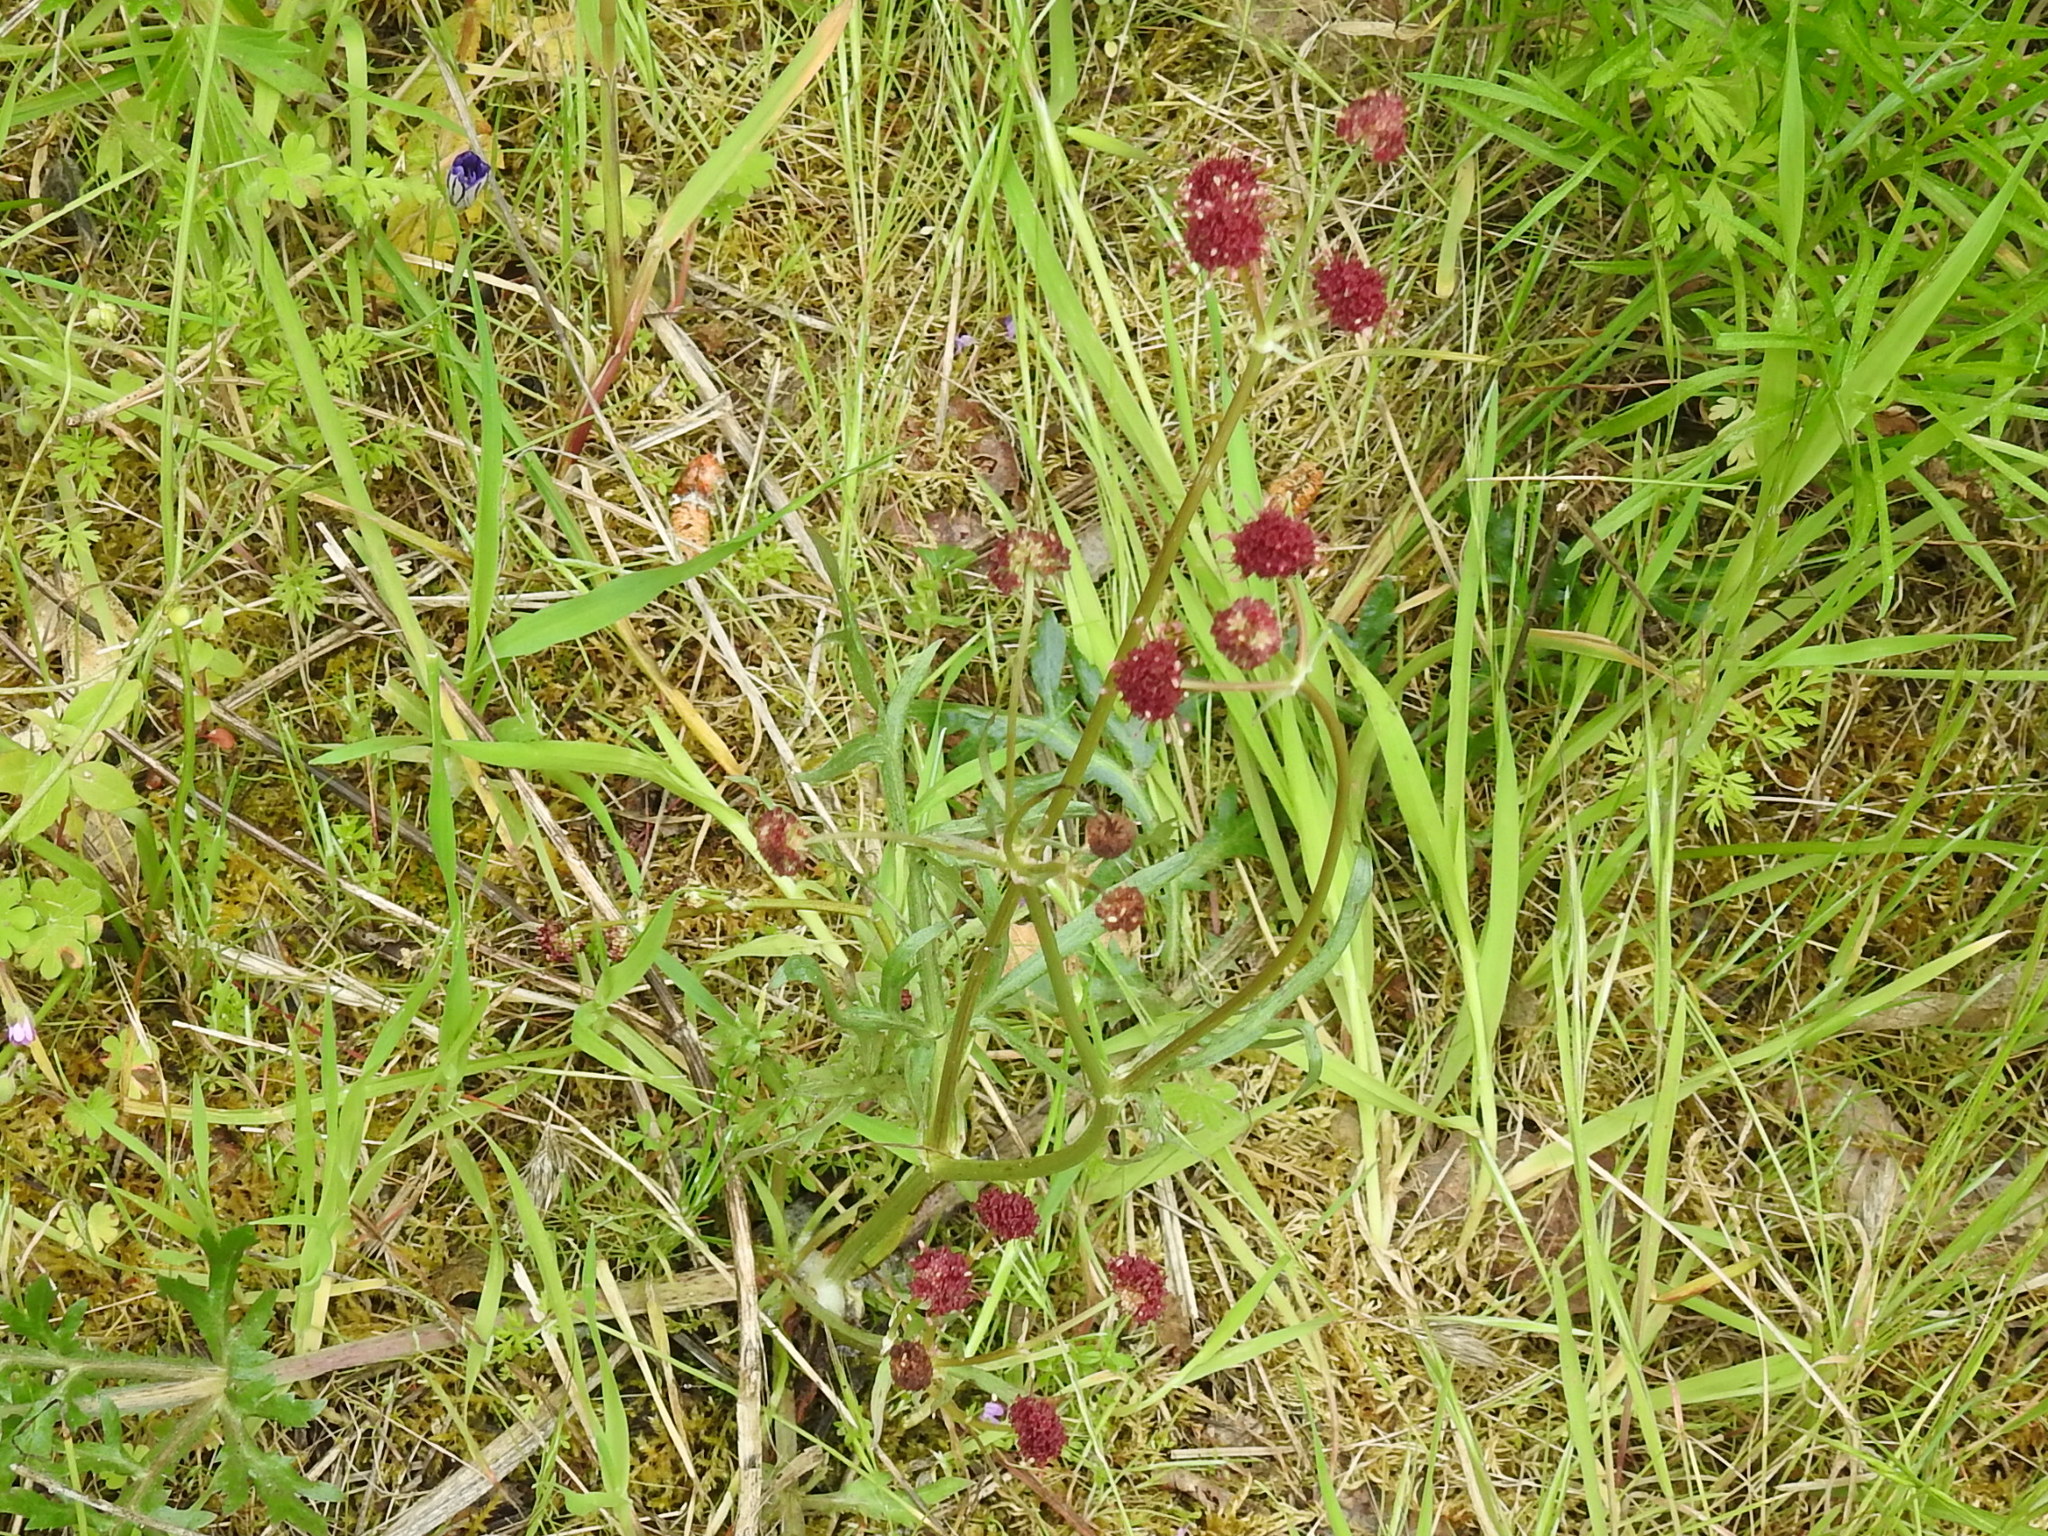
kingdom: Plantae
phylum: Tracheophyta
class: Magnoliopsida
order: Apiales
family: Apiaceae
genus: Sanicula
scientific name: Sanicula bipinnatifida
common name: Shoe-buttons
